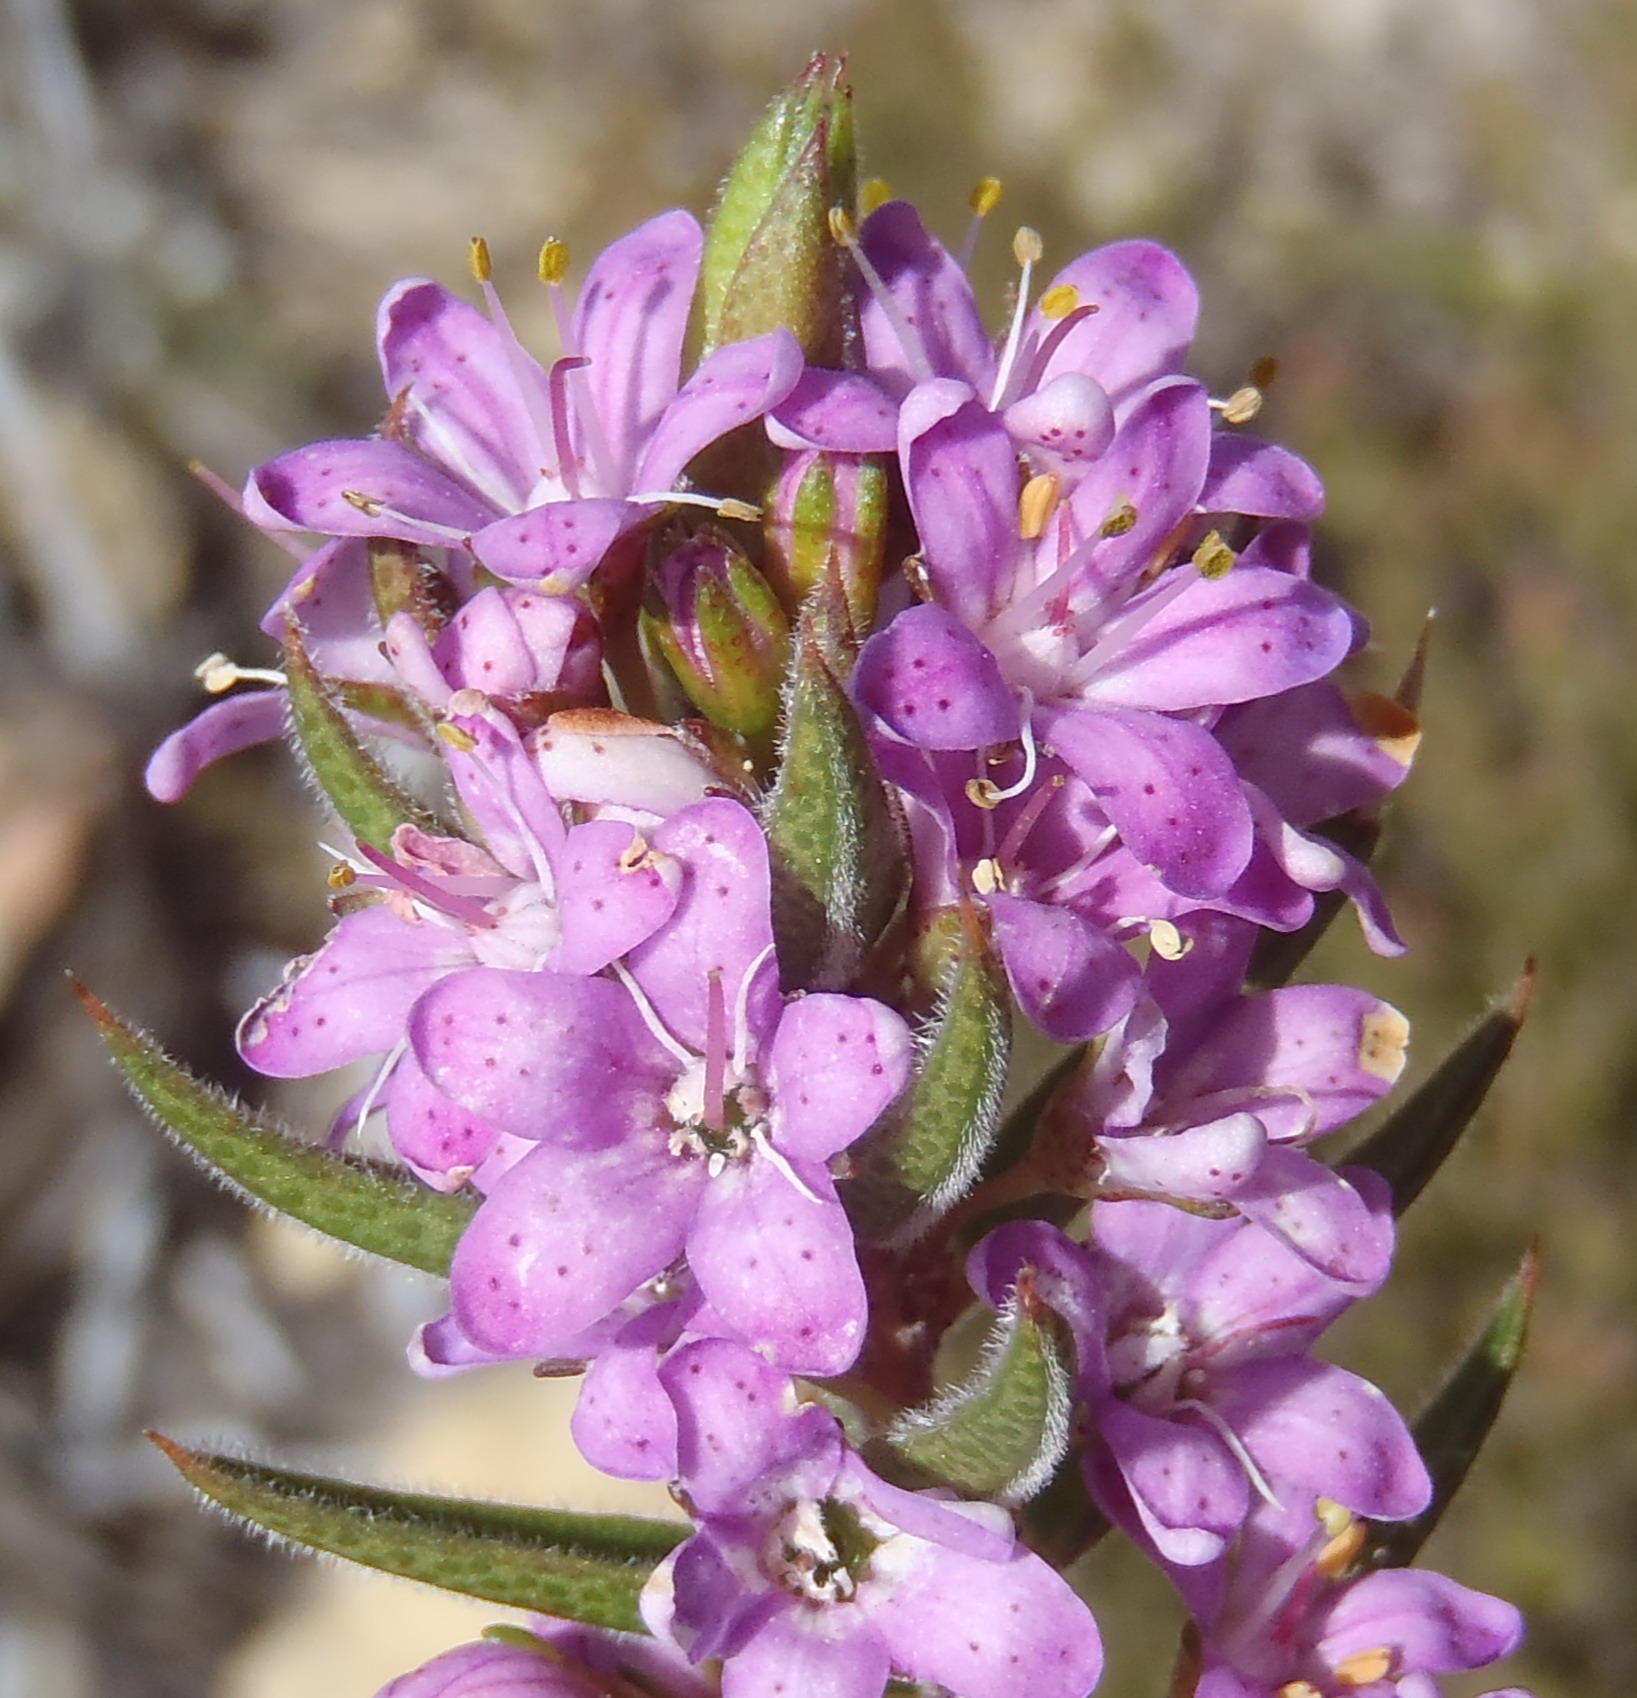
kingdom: Plantae
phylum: Tracheophyta
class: Magnoliopsida
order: Sapindales
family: Rutaceae
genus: Agathosma
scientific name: Agathosma pungens
